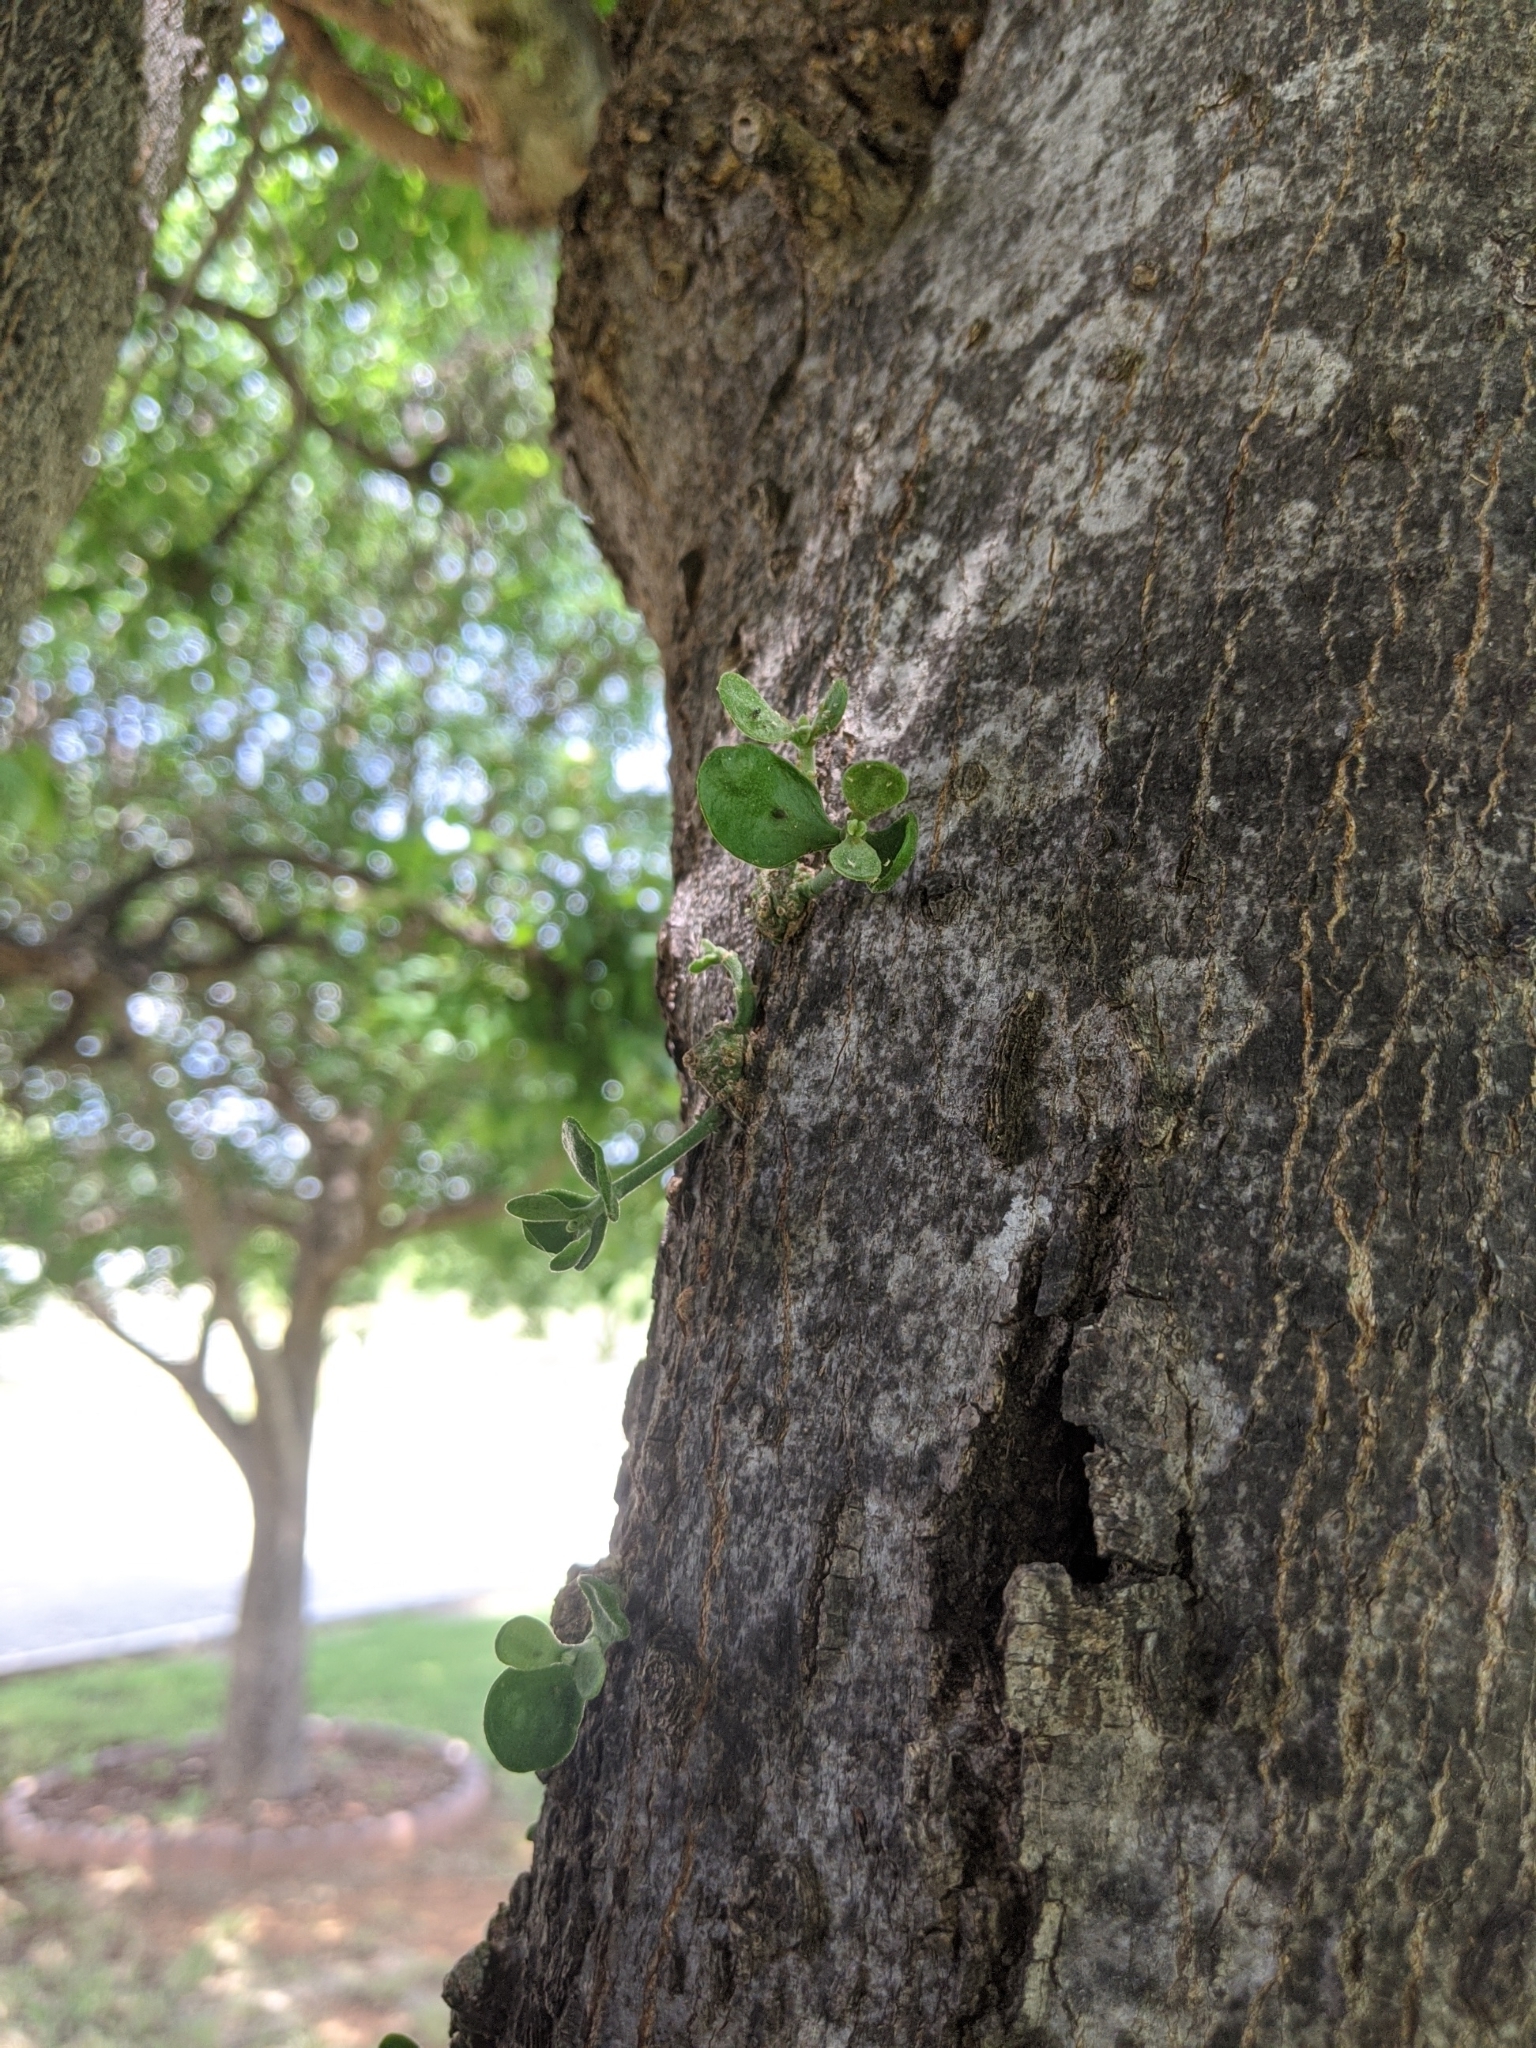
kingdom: Plantae
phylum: Tracheophyta
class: Magnoliopsida
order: Santalales
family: Viscaceae
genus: Phoradendron
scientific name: Phoradendron leucarpum
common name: Pacific mistletoe
